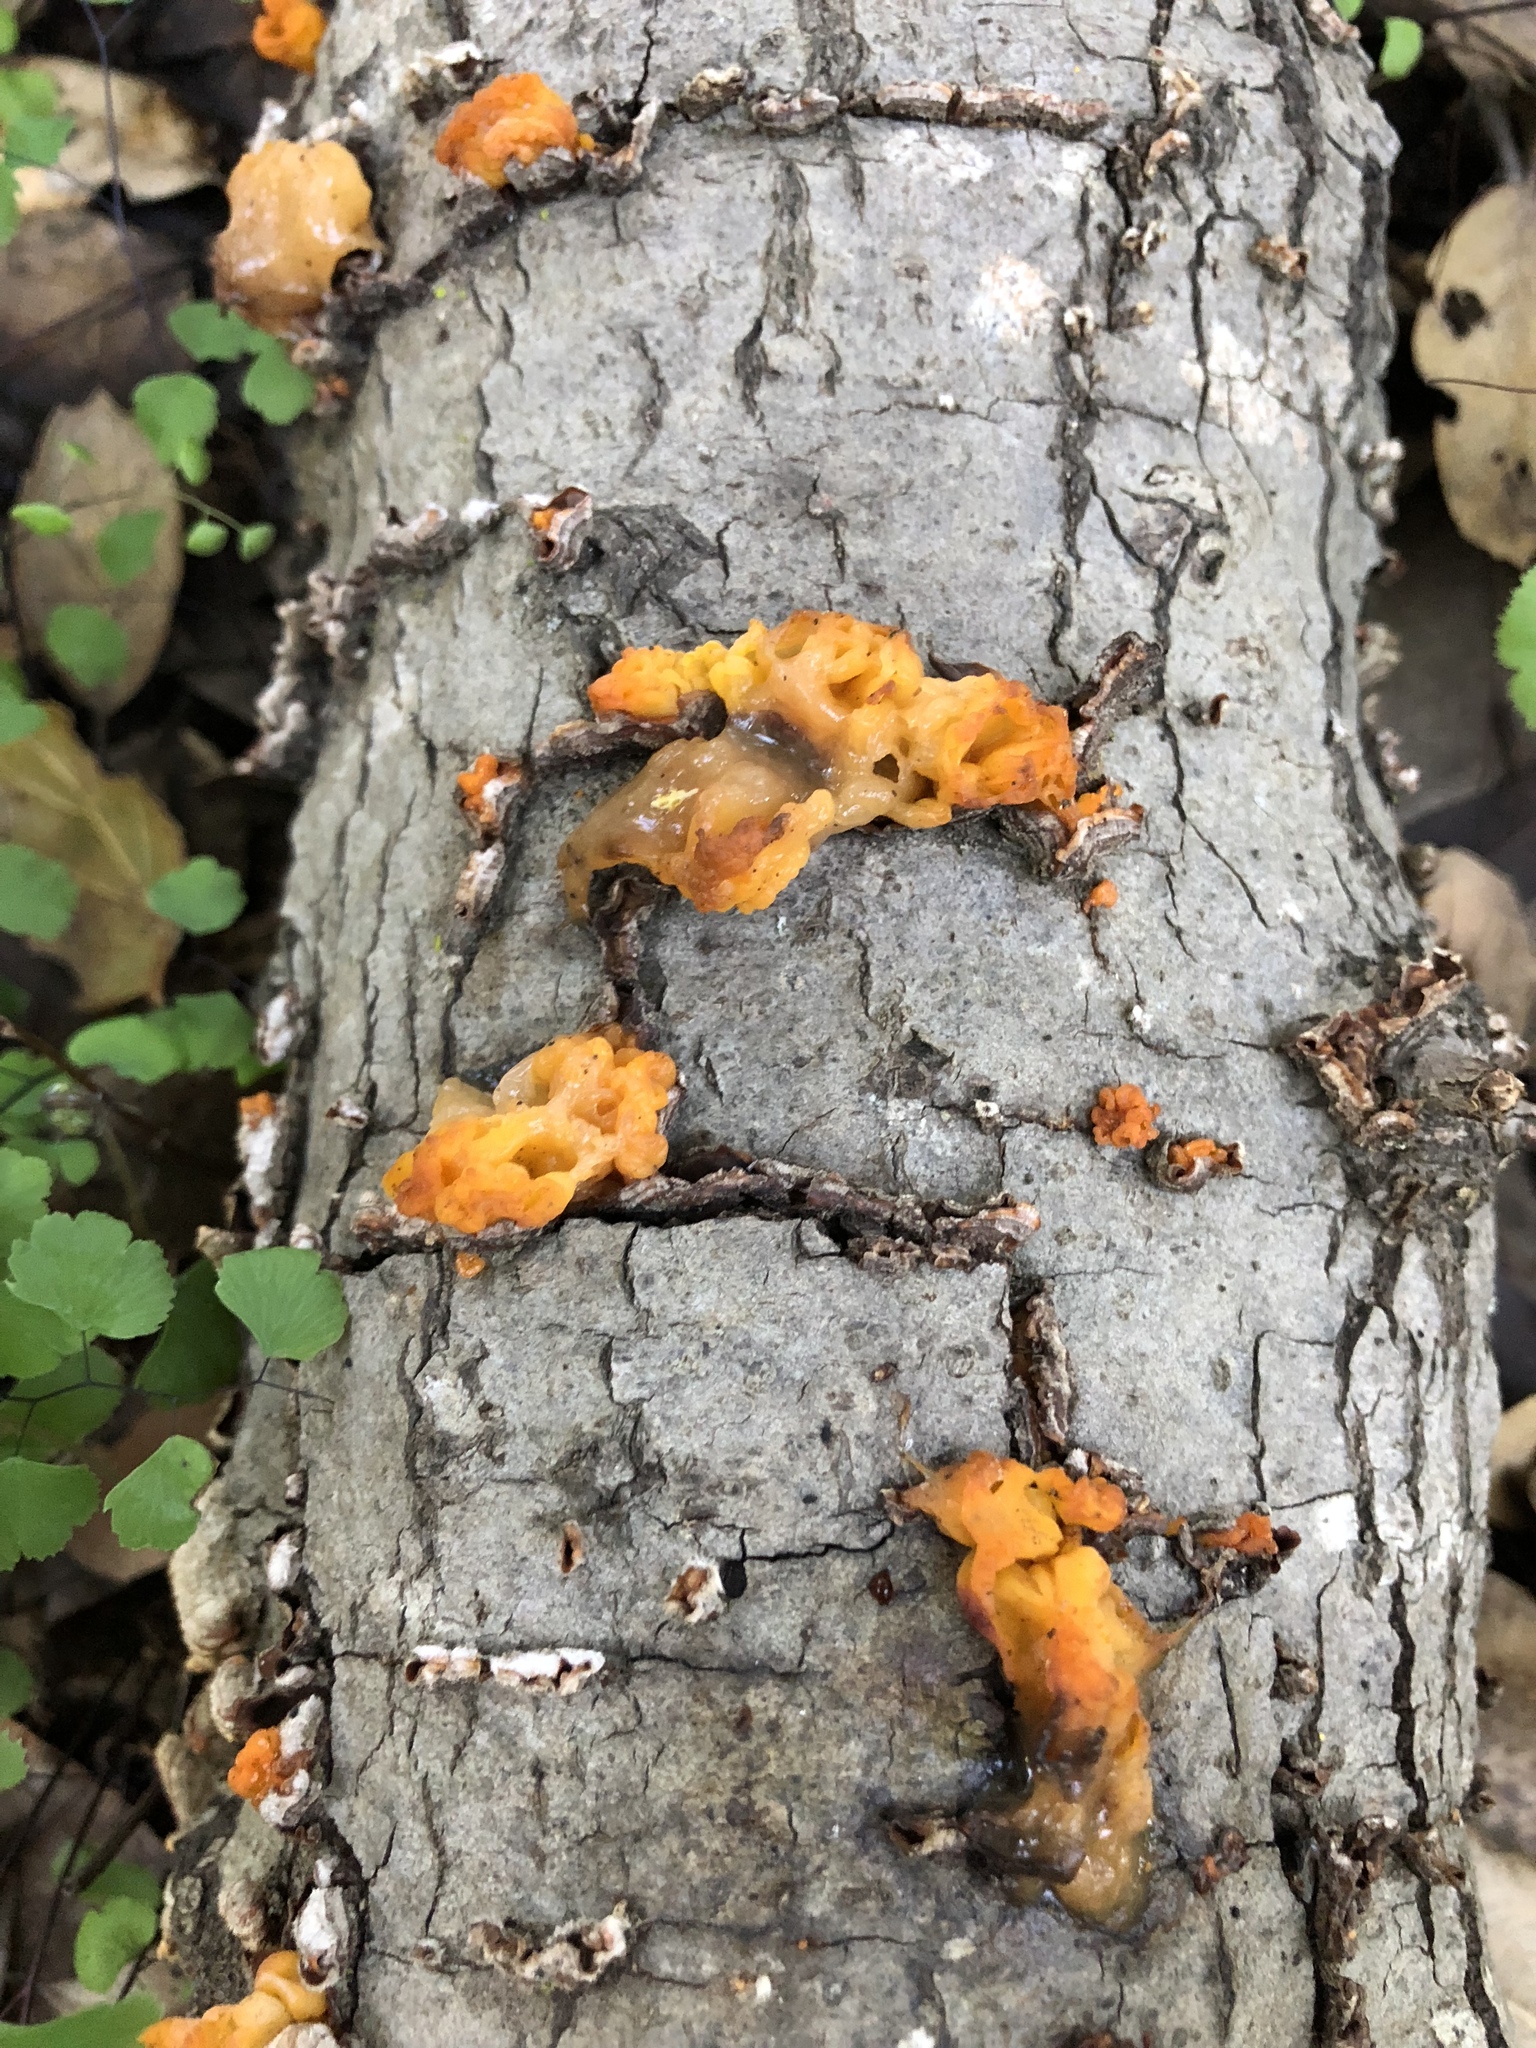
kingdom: Fungi
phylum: Basidiomycota
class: Tremellomycetes
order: Tremellales
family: Naemateliaceae
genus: Naematelia
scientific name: Naematelia aurantia
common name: Golden ear
